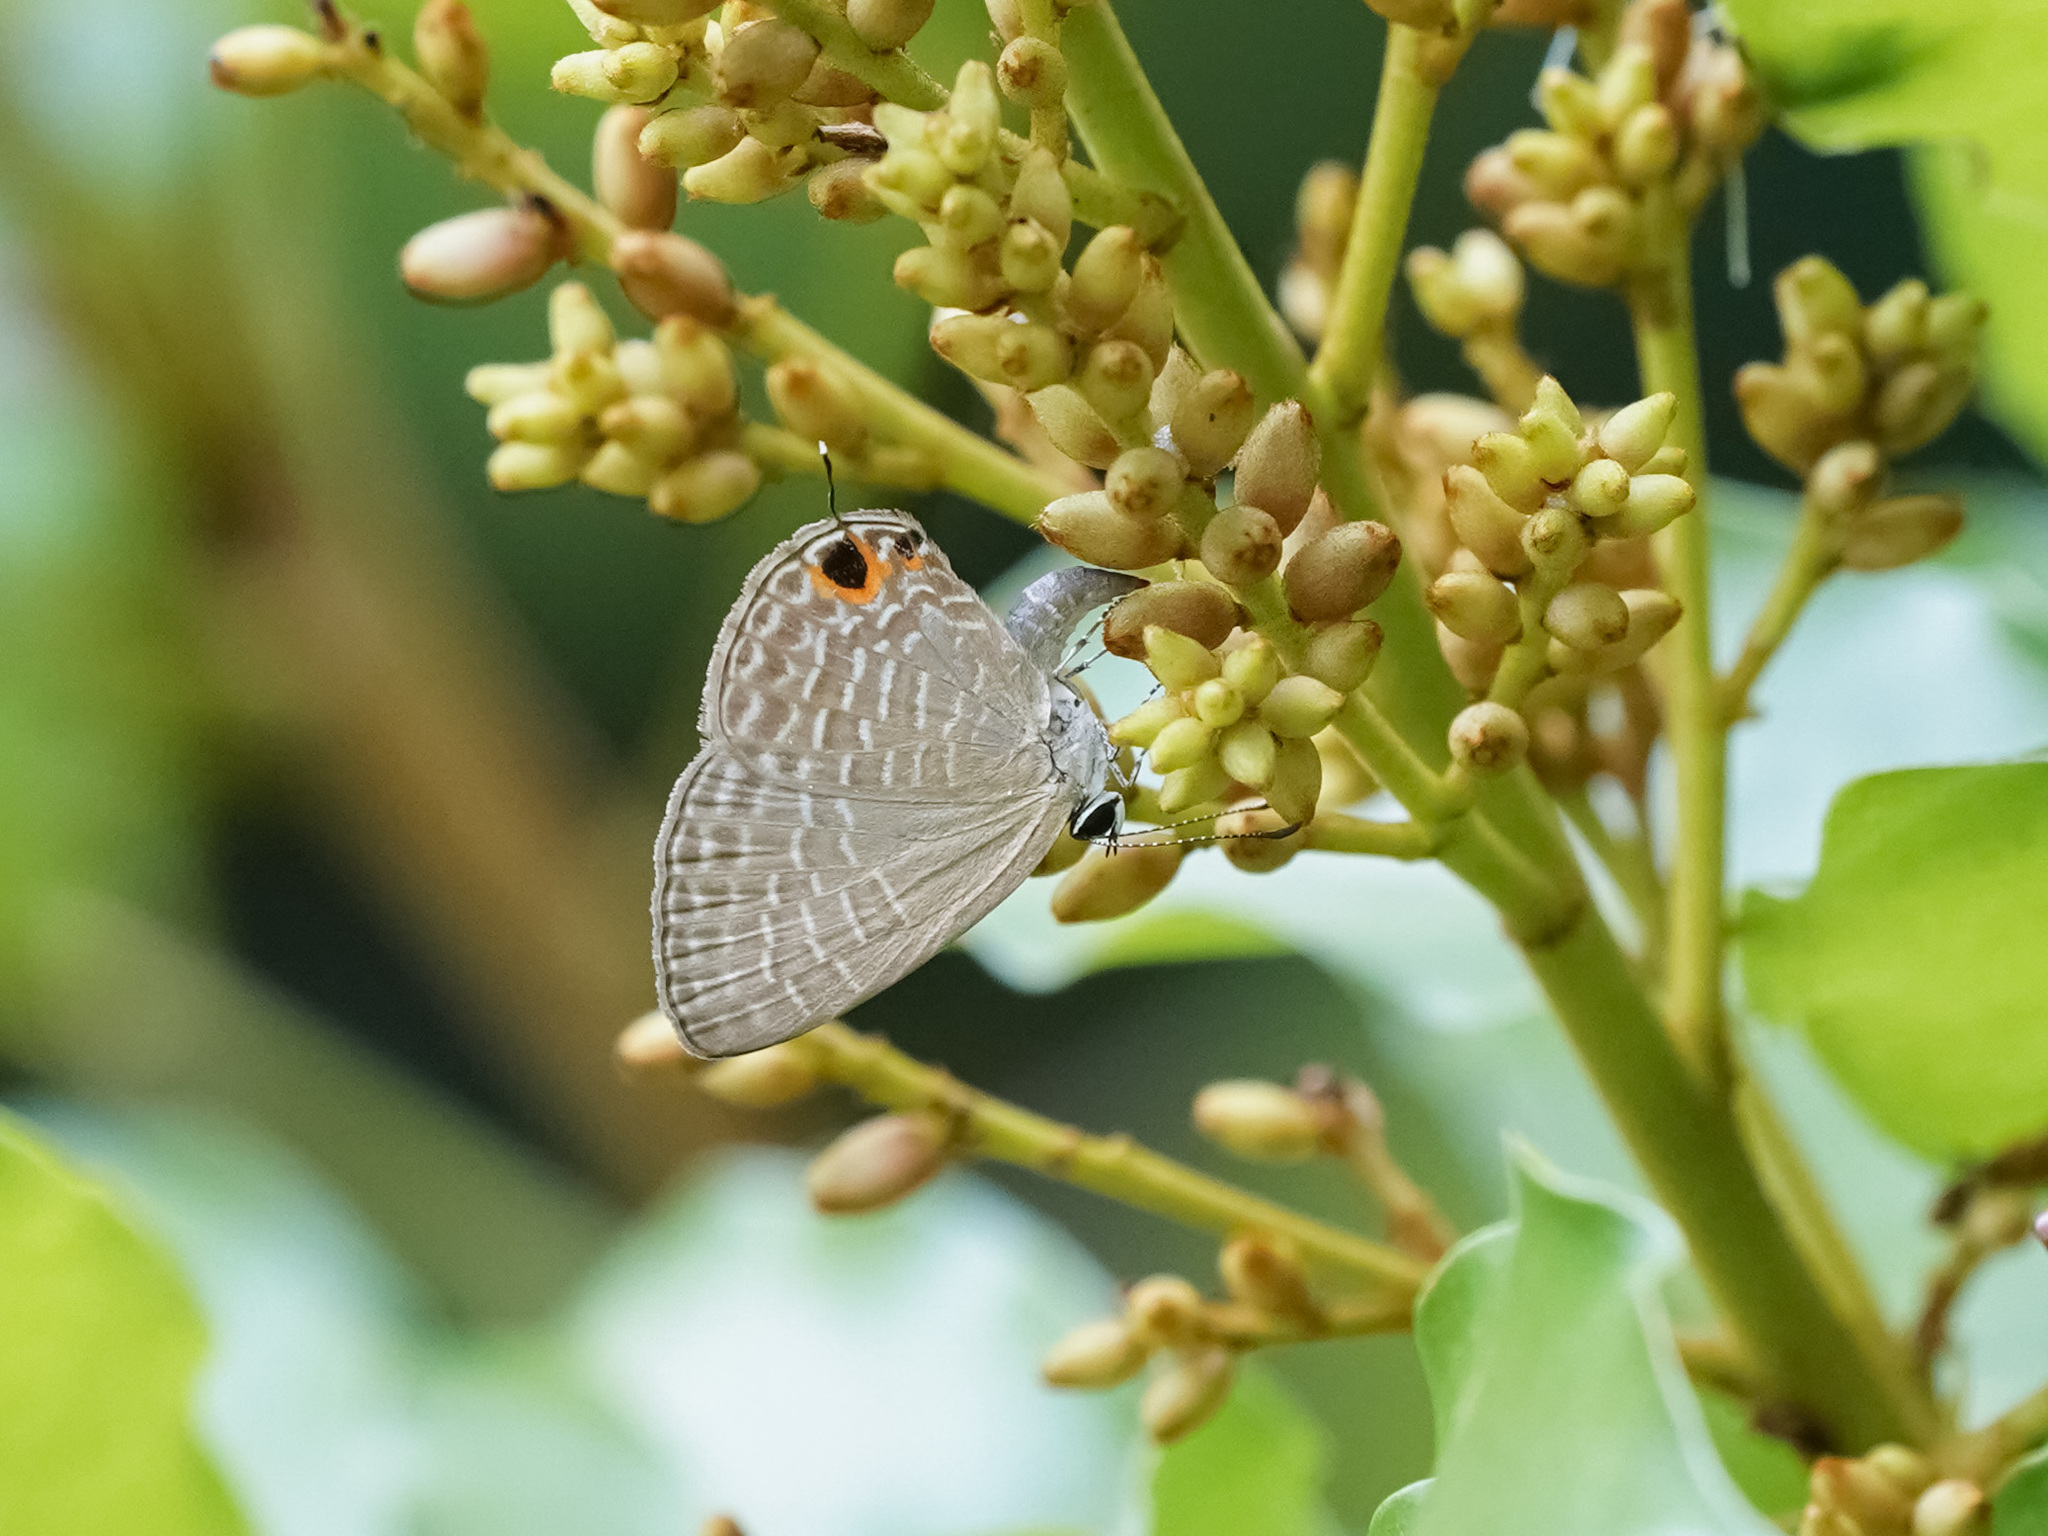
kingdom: Animalia
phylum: Arthropoda
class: Insecta
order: Lepidoptera
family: Lycaenidae
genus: Jamides
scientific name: Jamides bochus
